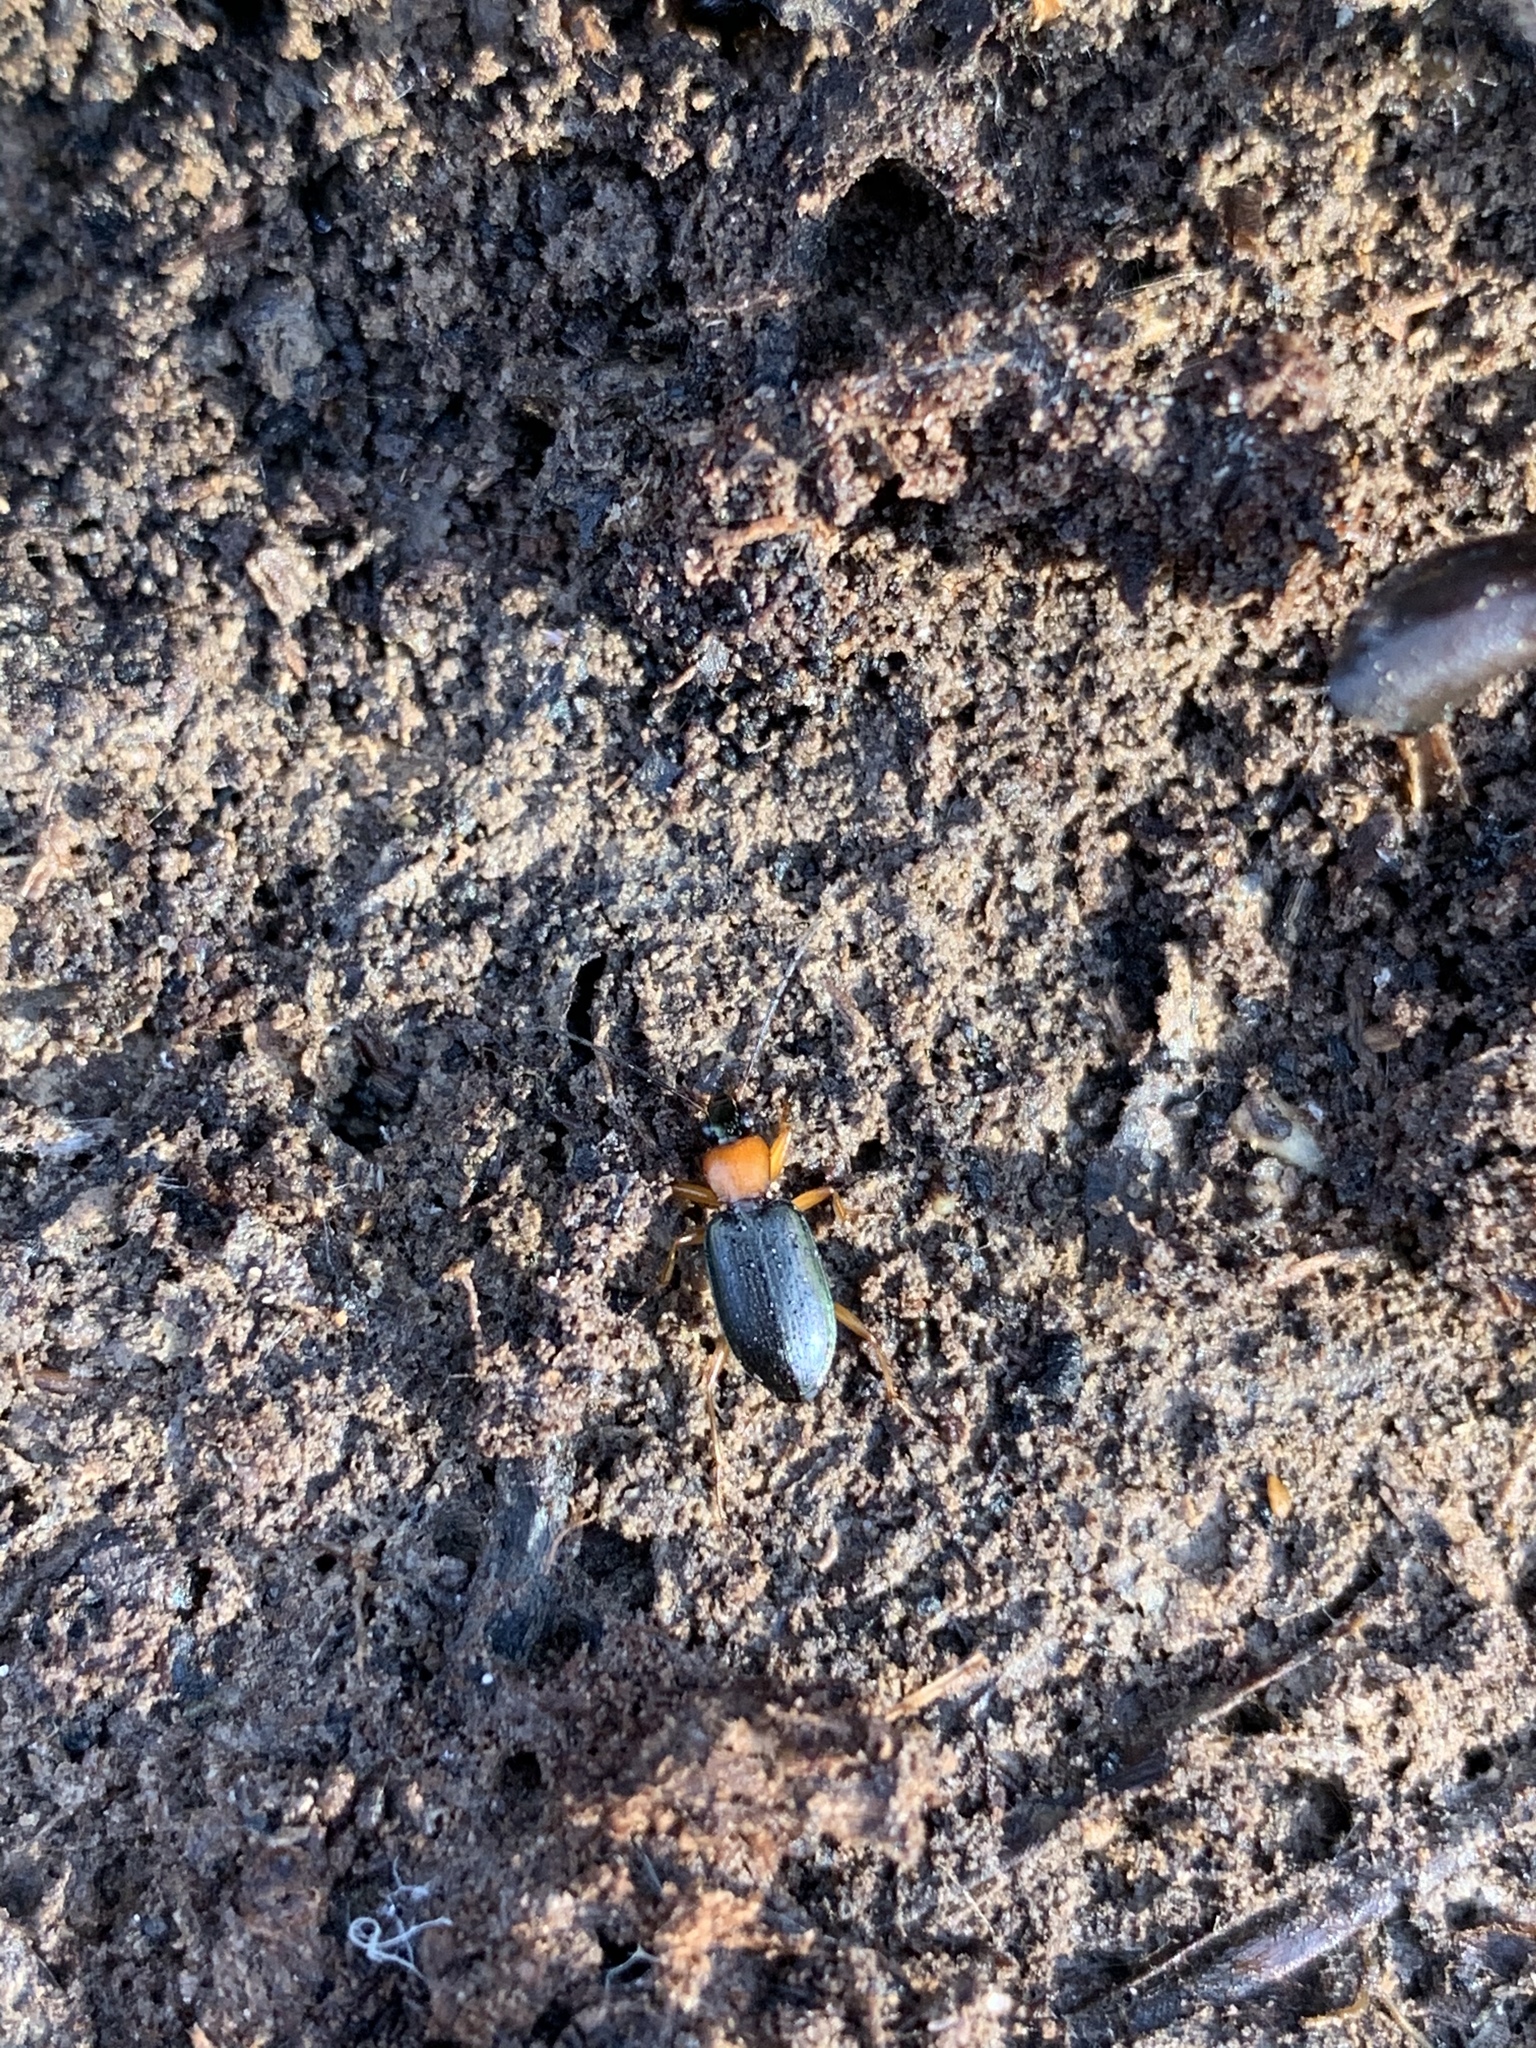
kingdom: Animalia
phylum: Arthropoda
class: Insecta
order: Coleoptera
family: Carabidae
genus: Agonum
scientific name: Agonum decorum
